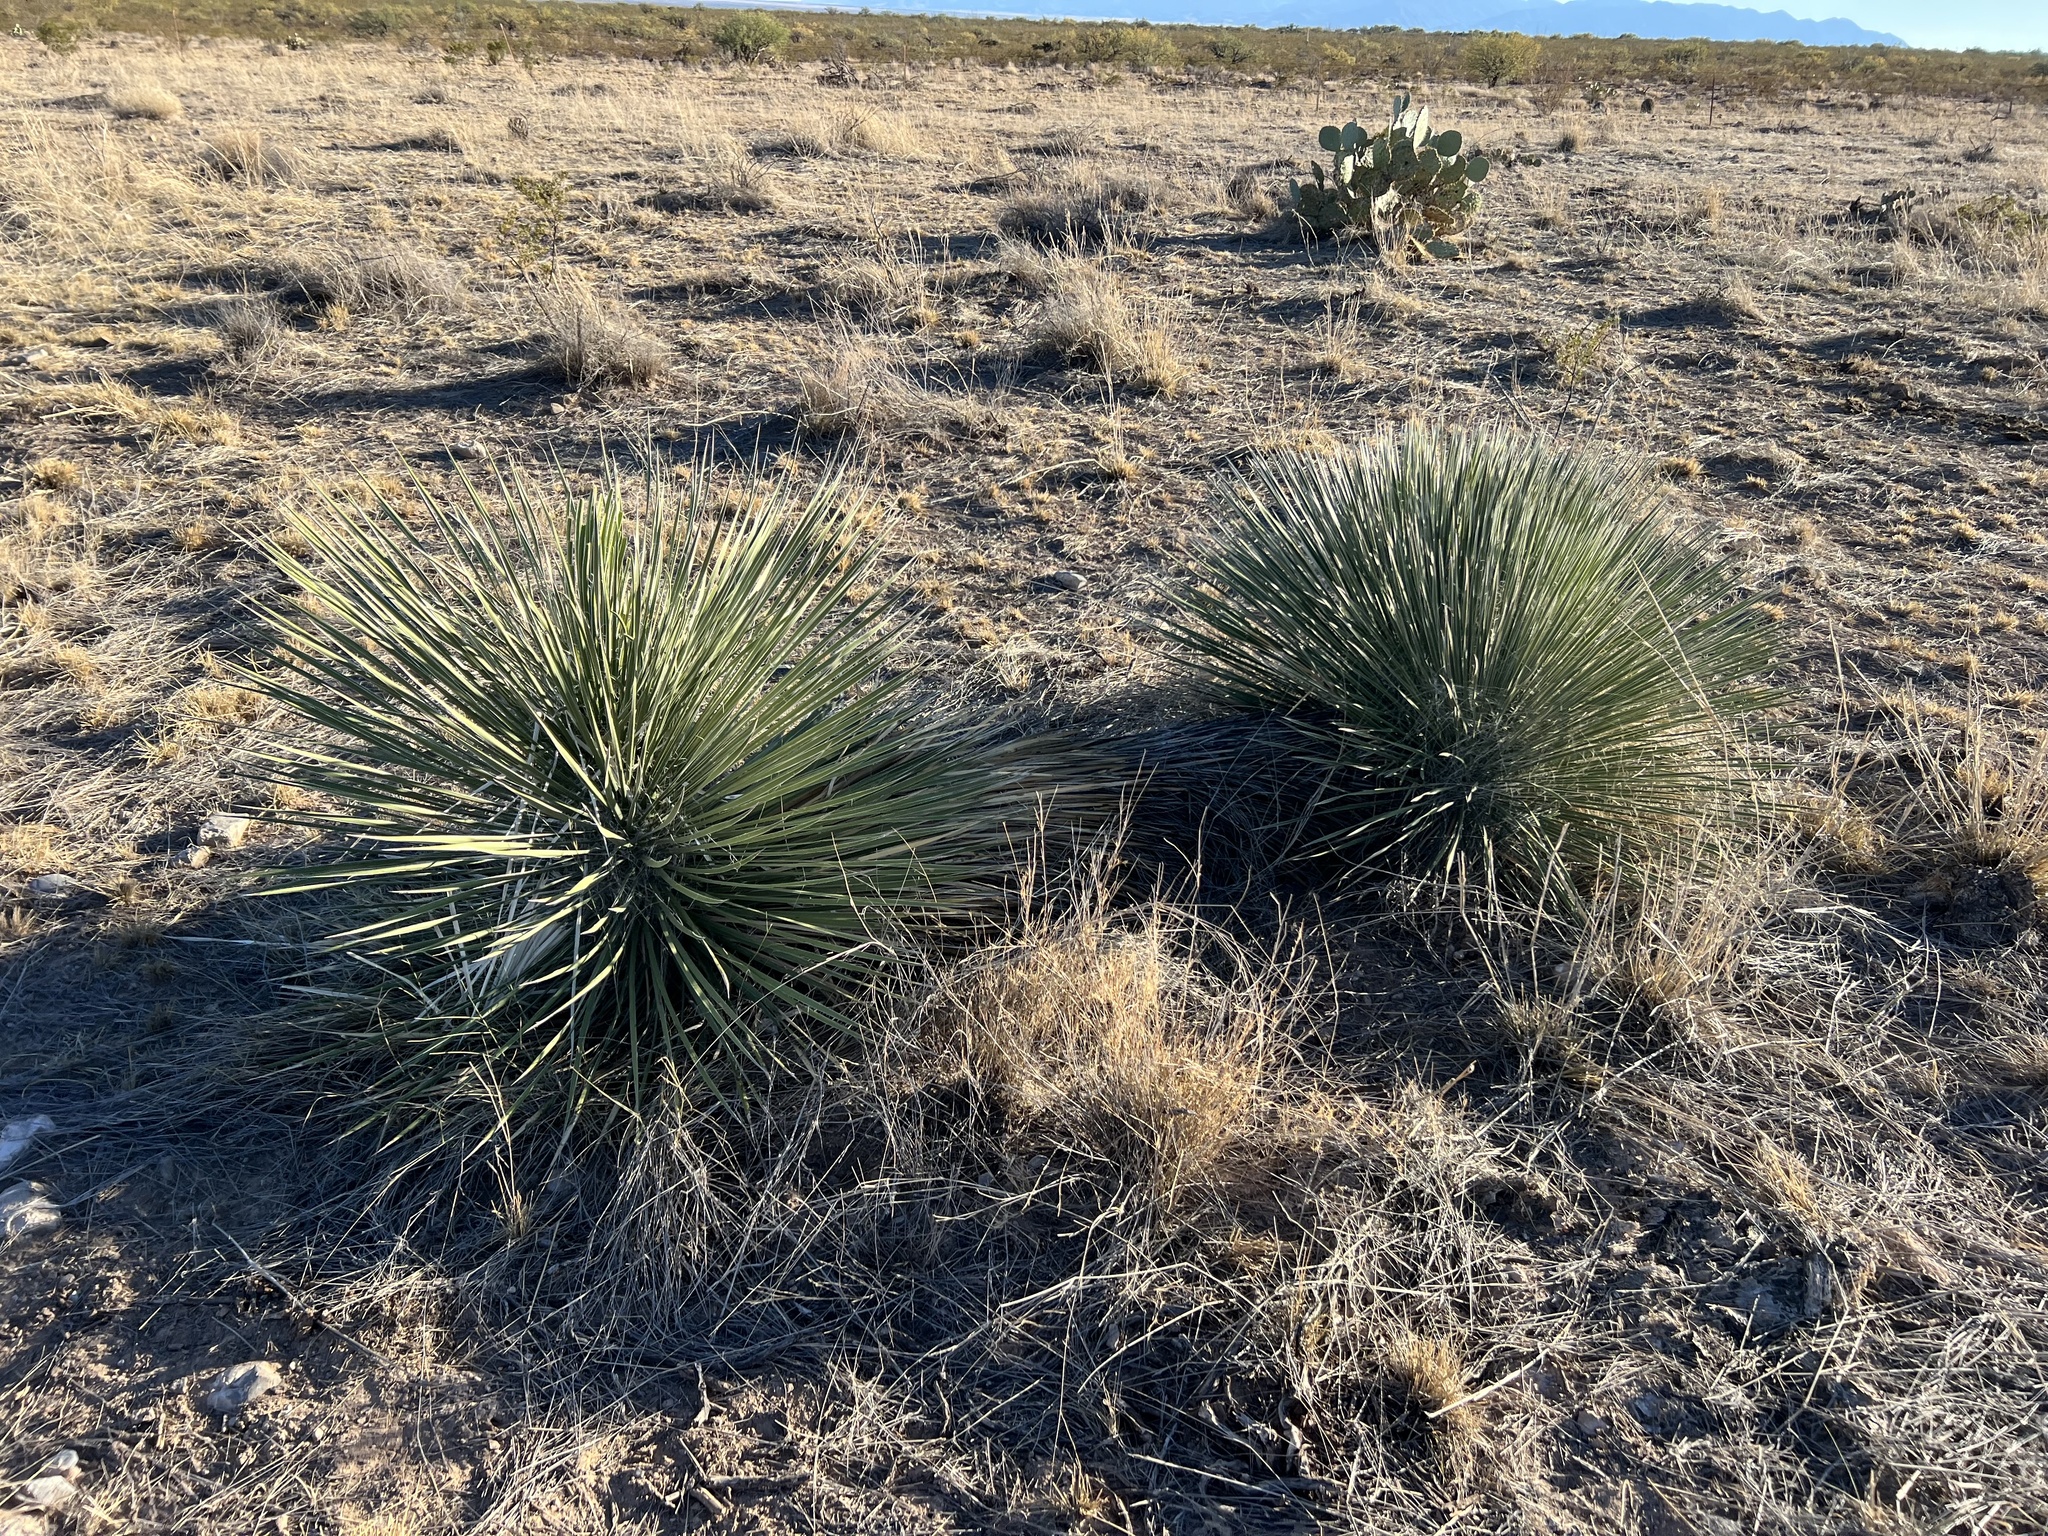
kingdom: Plantae
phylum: Tracheophyta
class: Liliopsida
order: Asparagales
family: Asparagaceae
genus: Yucca
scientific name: Yucca elata
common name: Palmella
